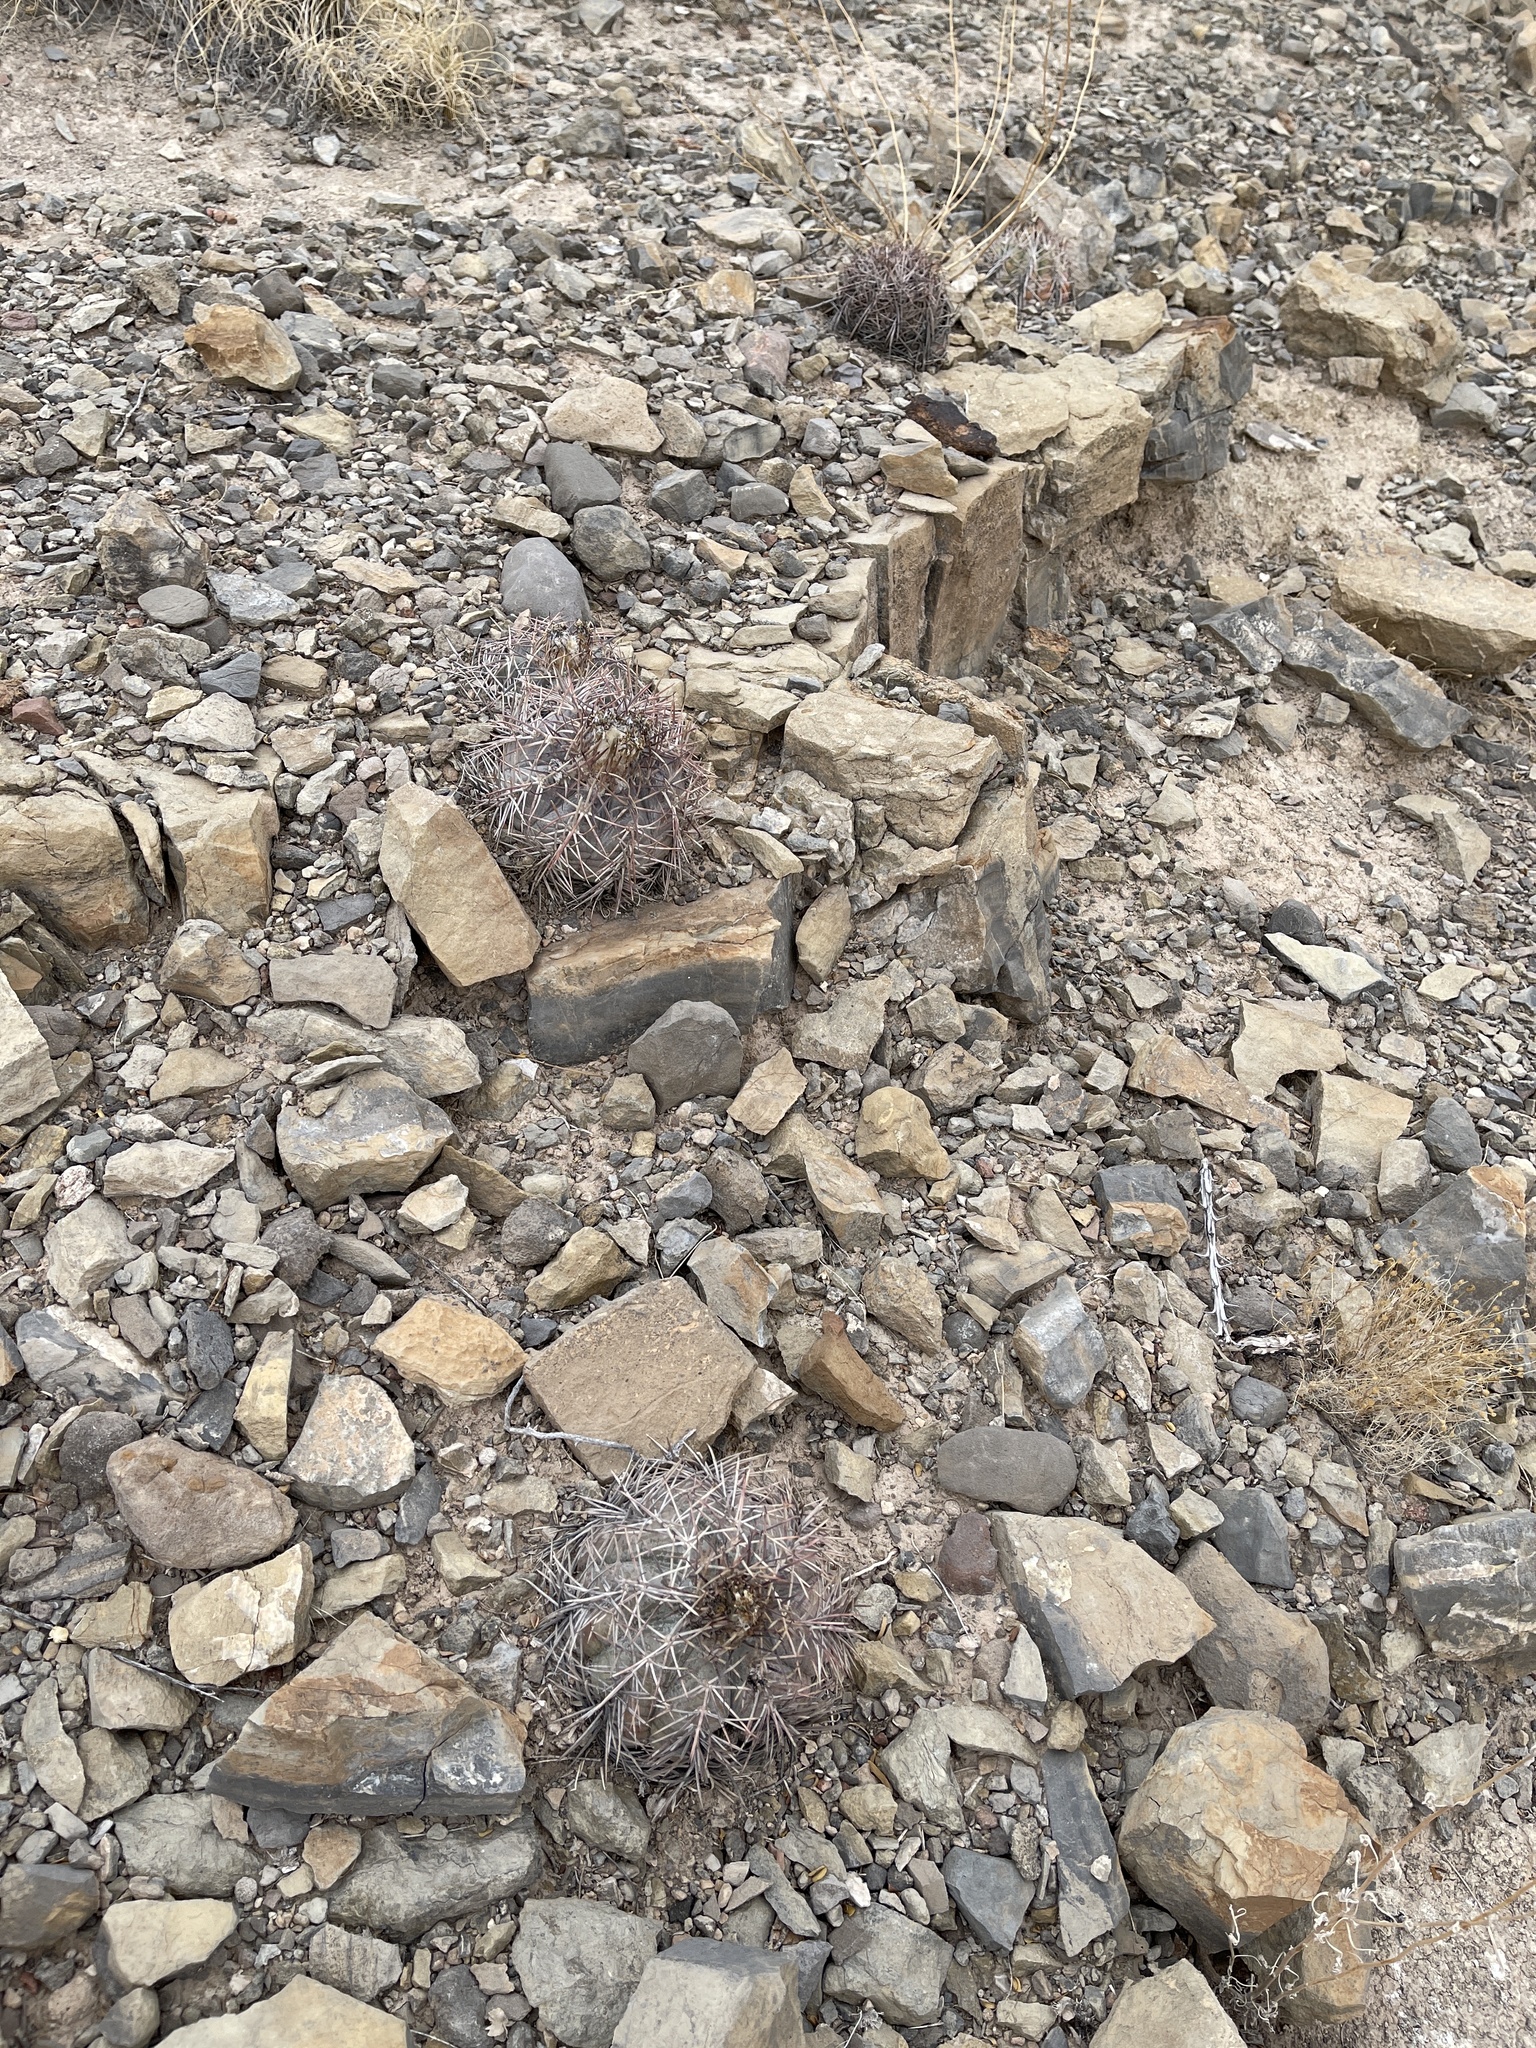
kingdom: Plantae
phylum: Tracheophyta
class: Magnoliopsida
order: Caryophyllales
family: Cactaceae
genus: Echinocactus
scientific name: Echinocactus horizonthalonius
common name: Devilshead
